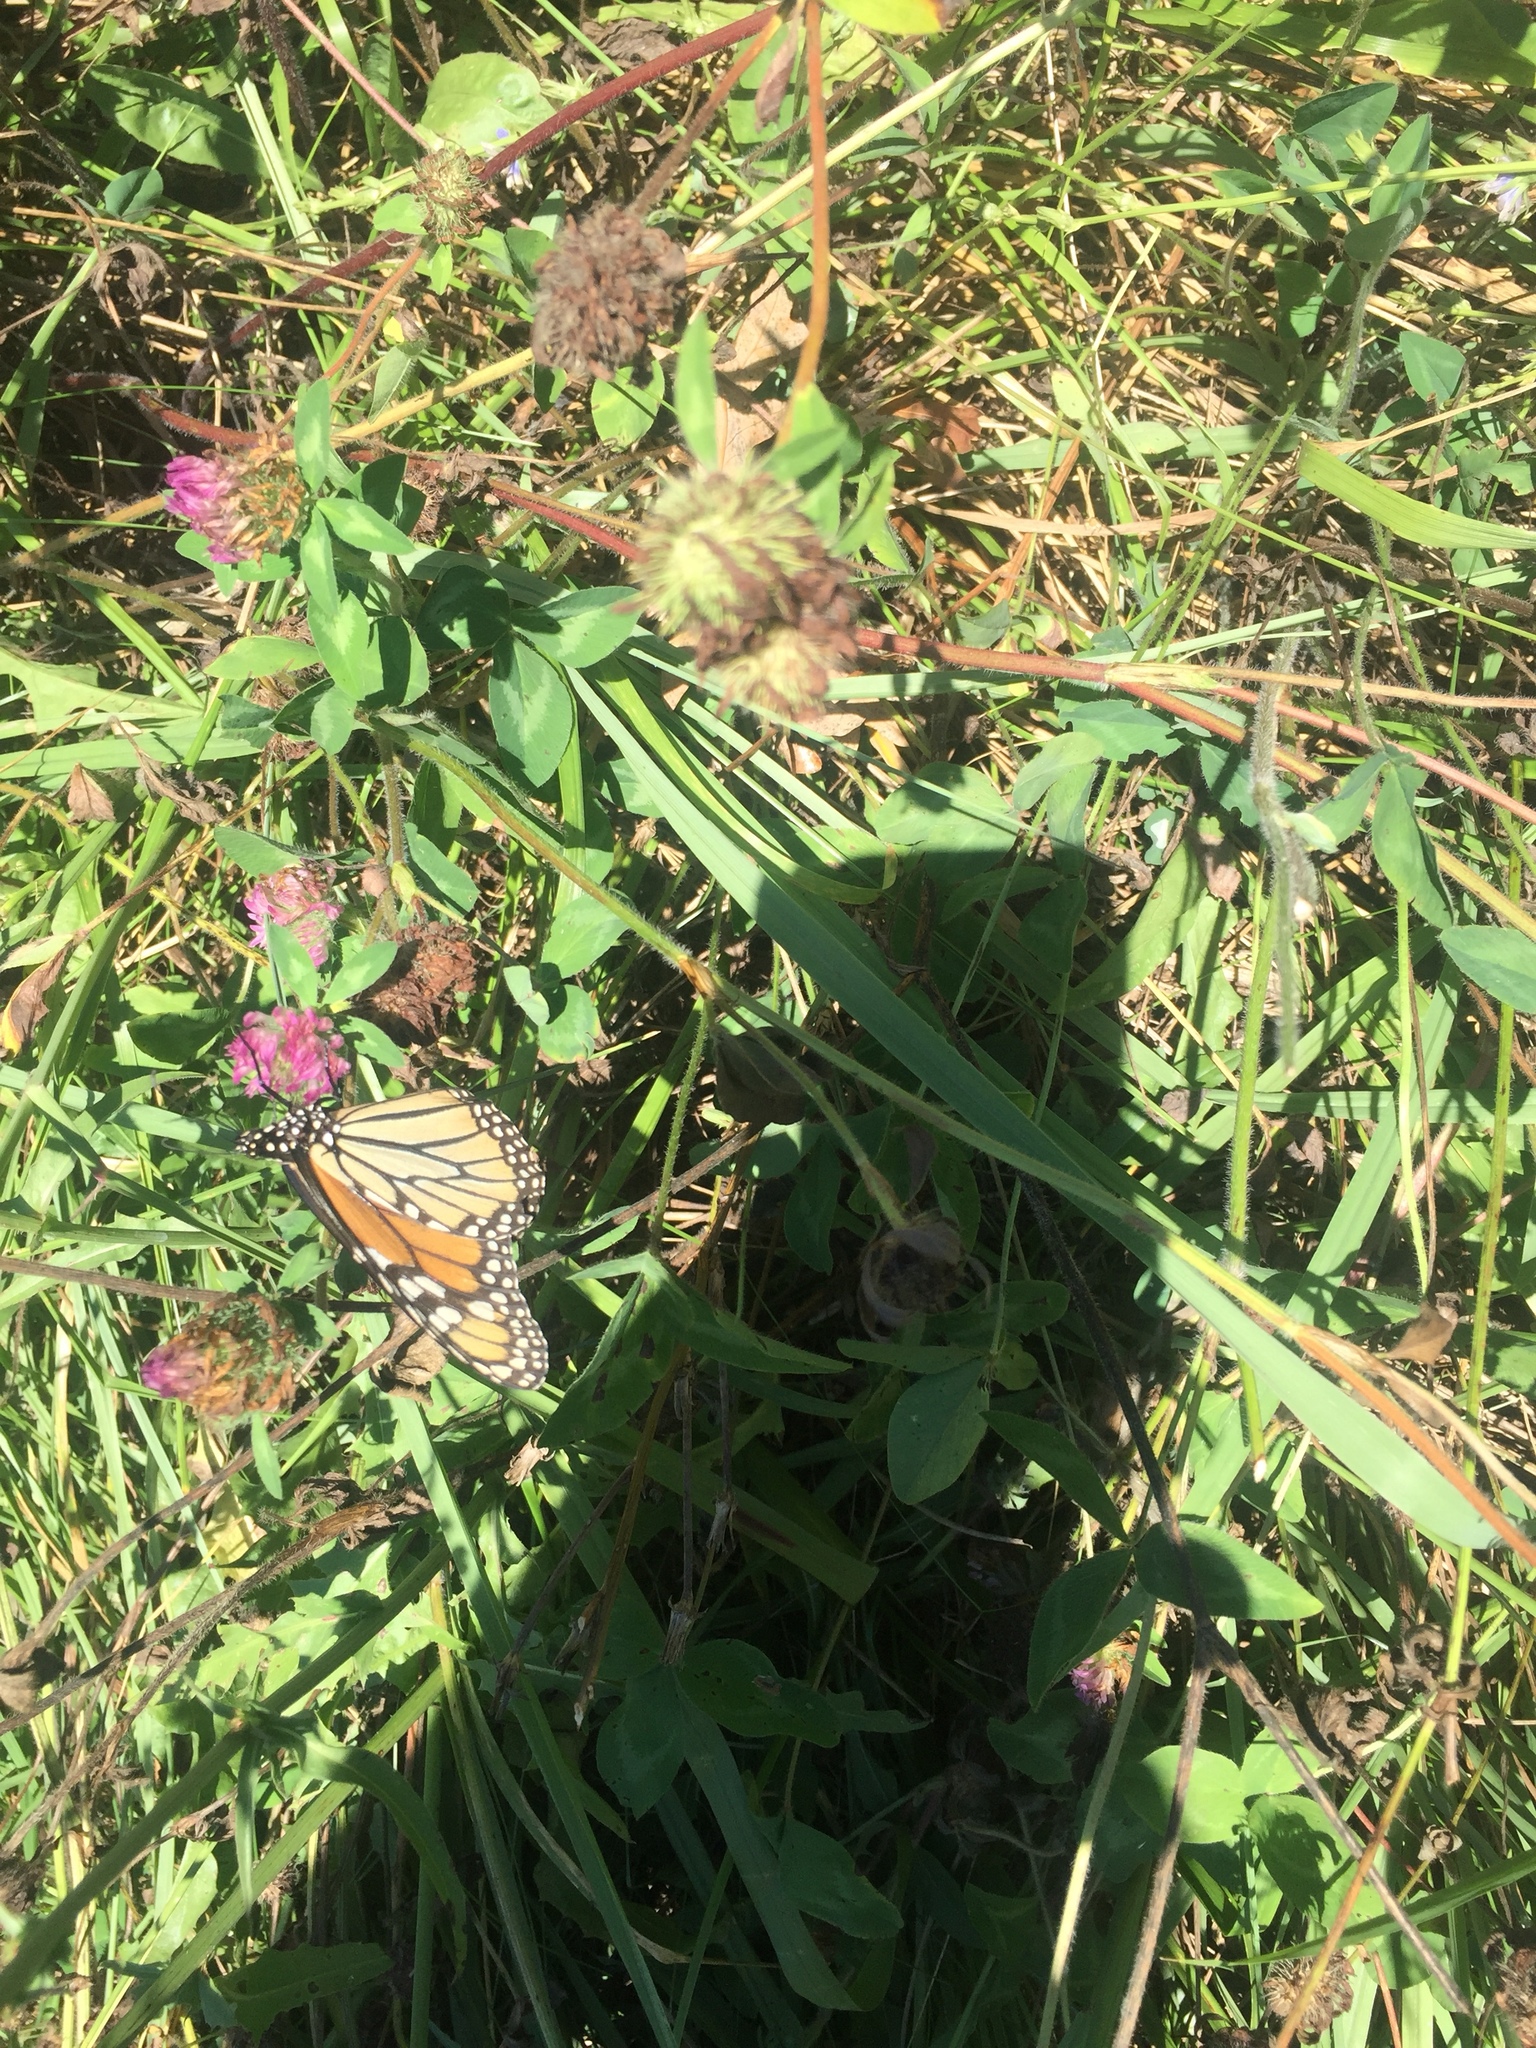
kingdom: Animalia
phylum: Arthropoda
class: Insecta
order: Lepidoptera
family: Nymphalidae
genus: Danaus
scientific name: Danaus plexippus
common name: Monarch
